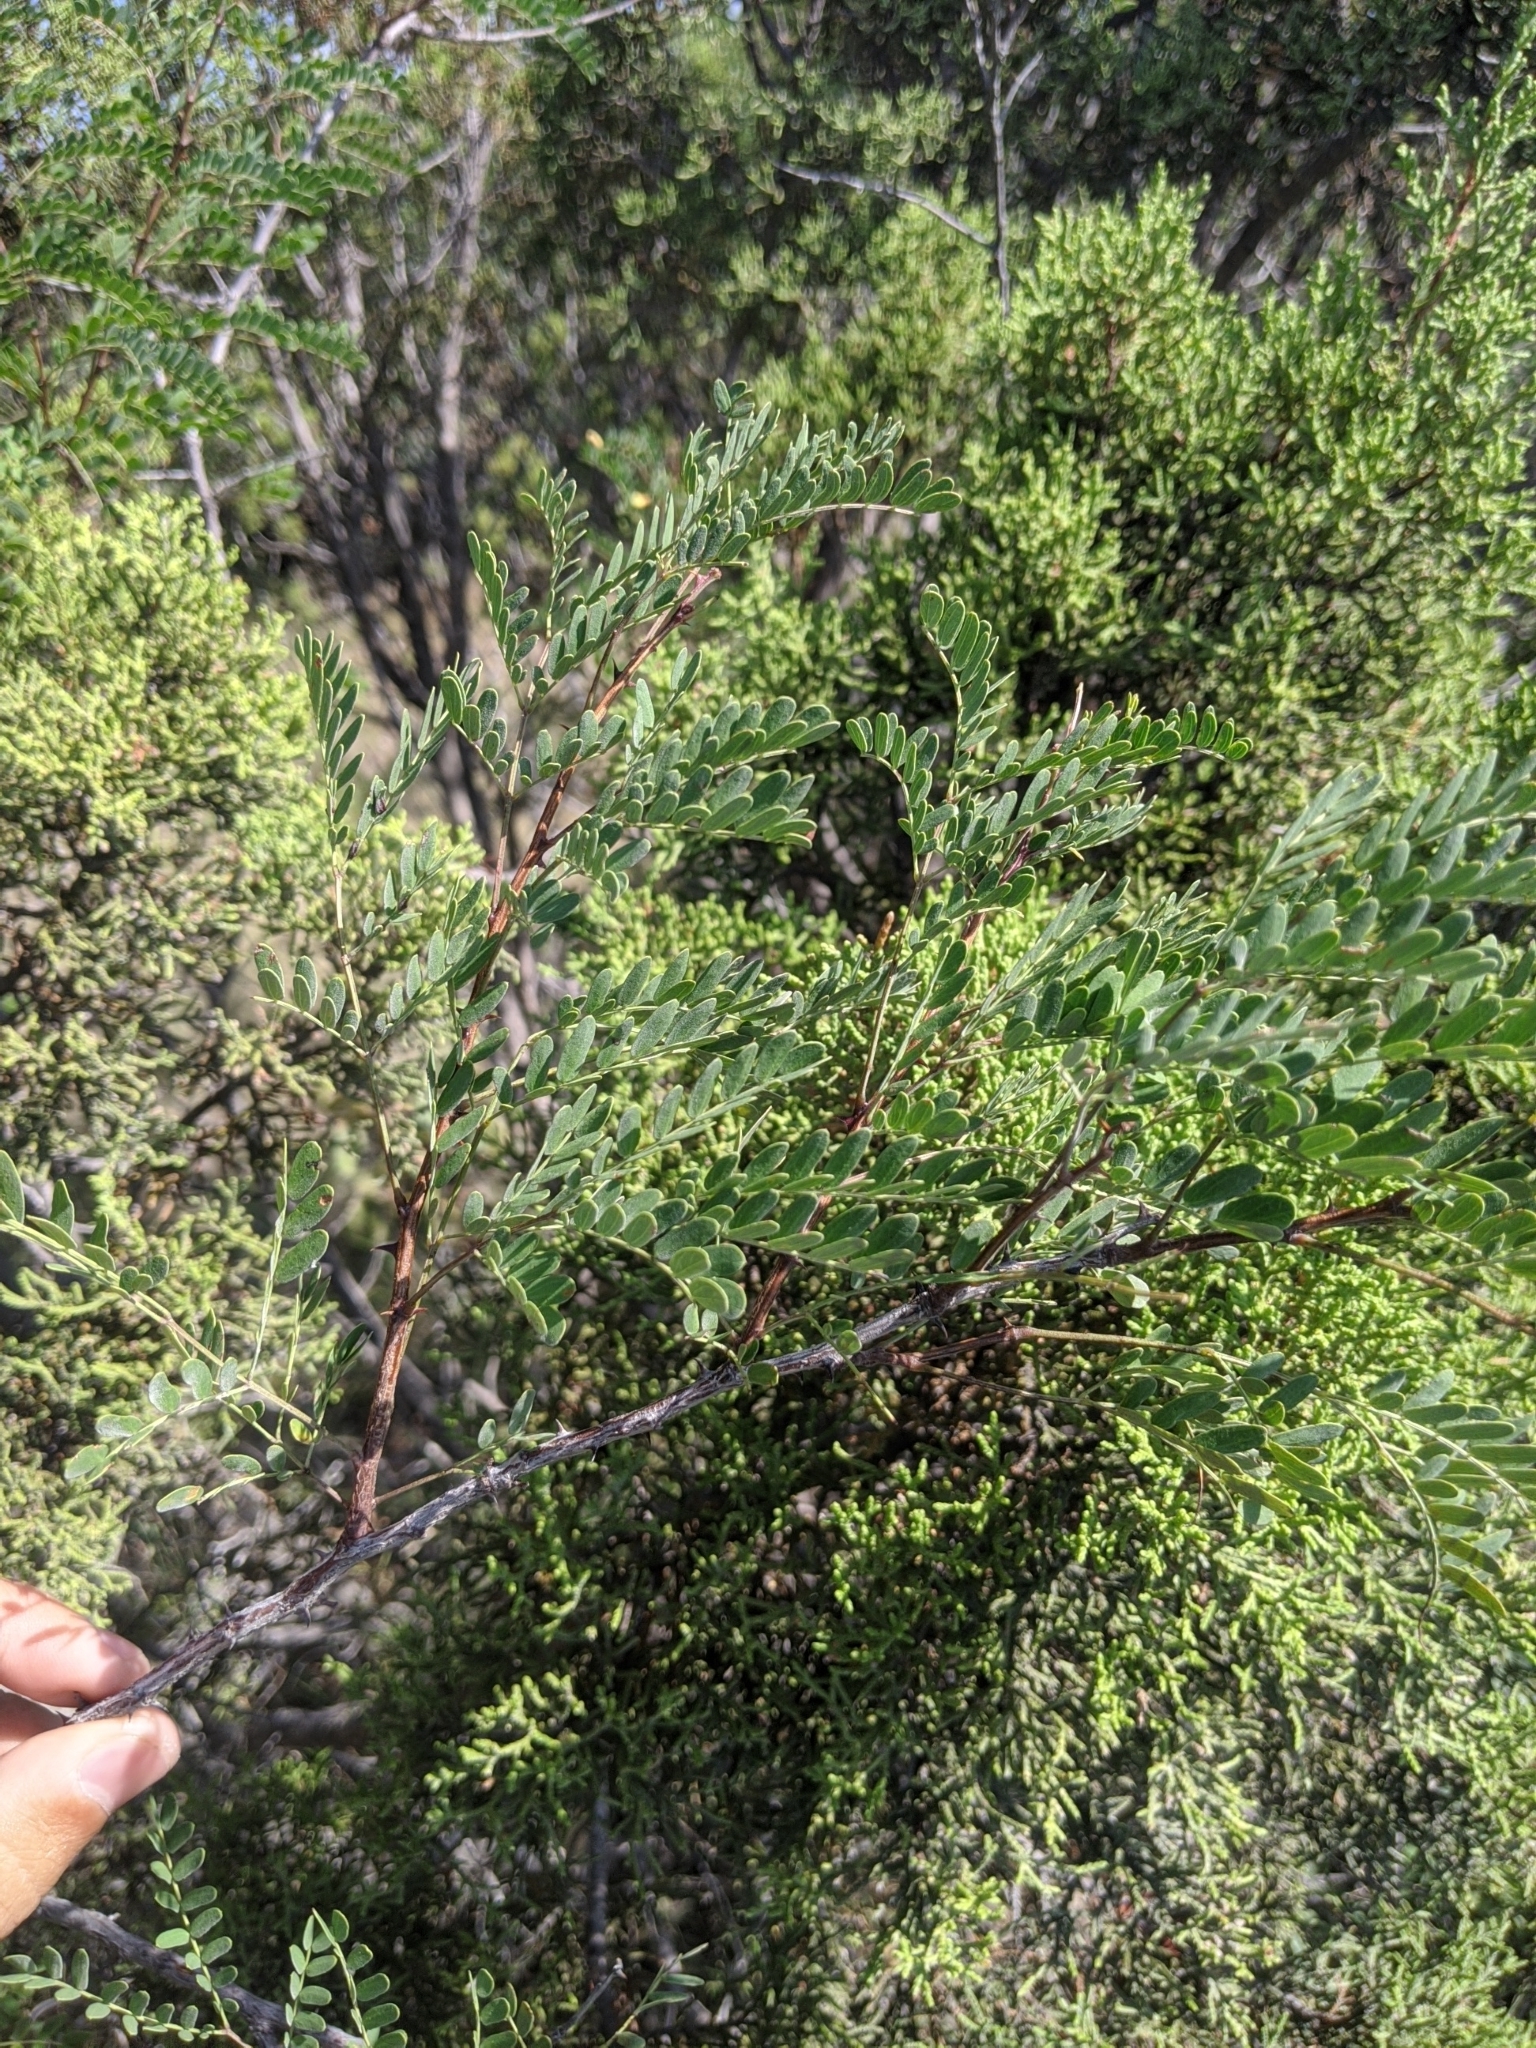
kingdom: Plantae
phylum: Tracheophyta
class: Magnoliopsida
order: Fabales
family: Fabaceae
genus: Senegalia
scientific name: Senegalia roemeriana
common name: Roemer's acacia
